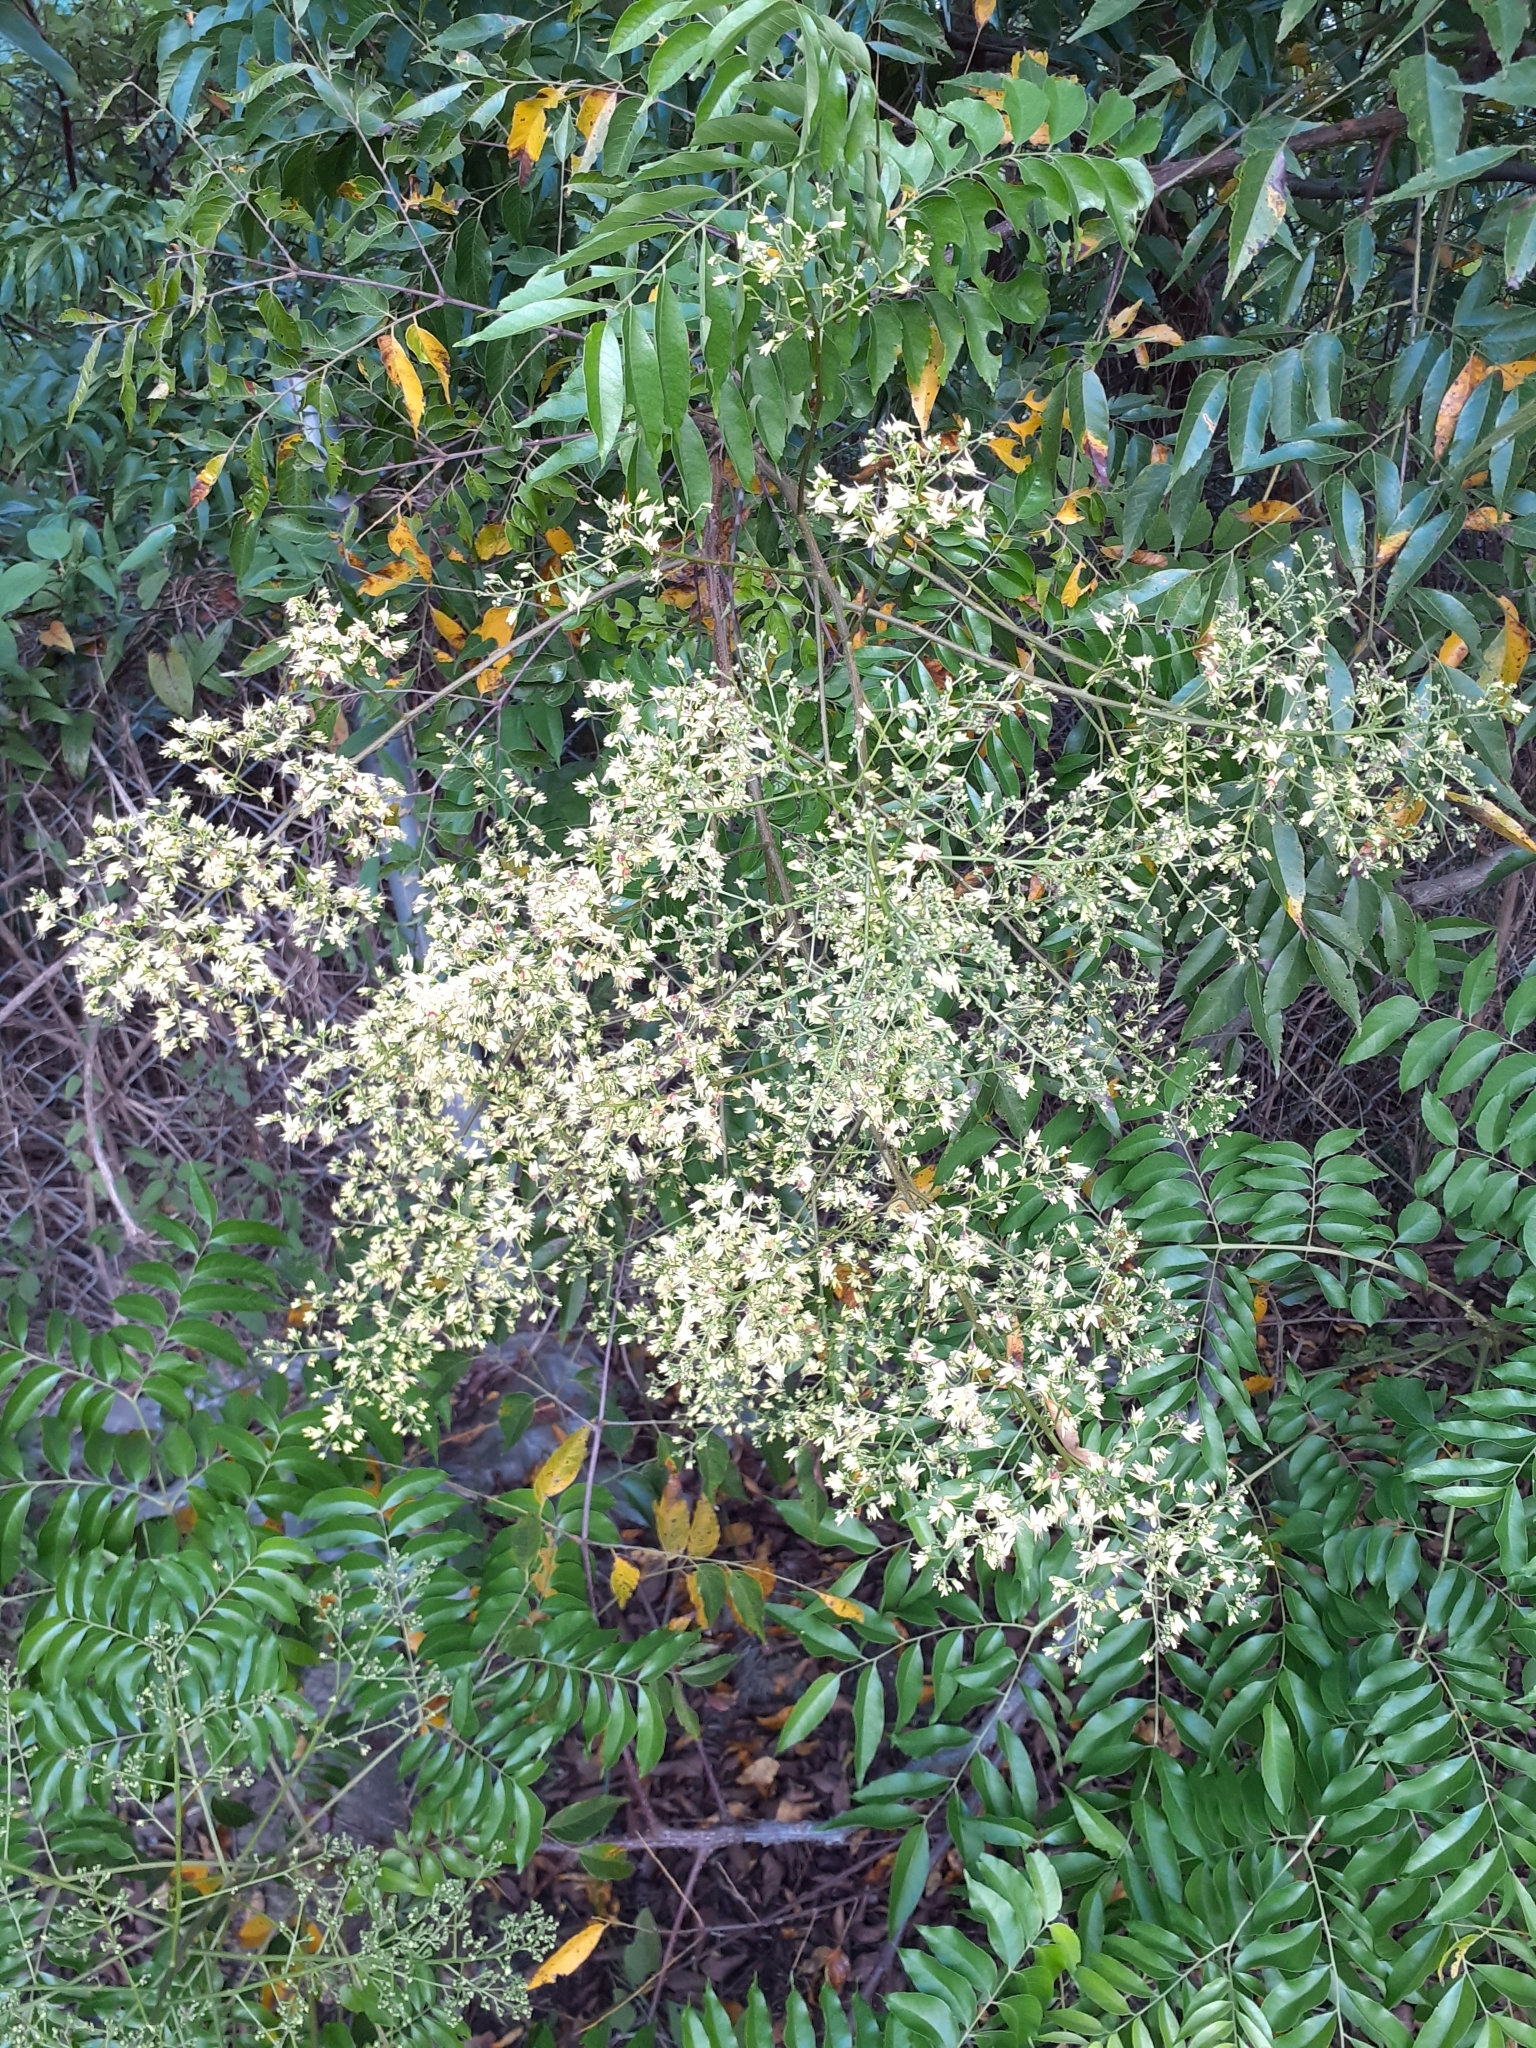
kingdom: Plantae
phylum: Tracheophyta
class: Magnoliopsida
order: Sapindales
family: Sapindaceae
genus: Koelreuteria
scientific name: Koelreuteria elegans
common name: Chinese flame tree
